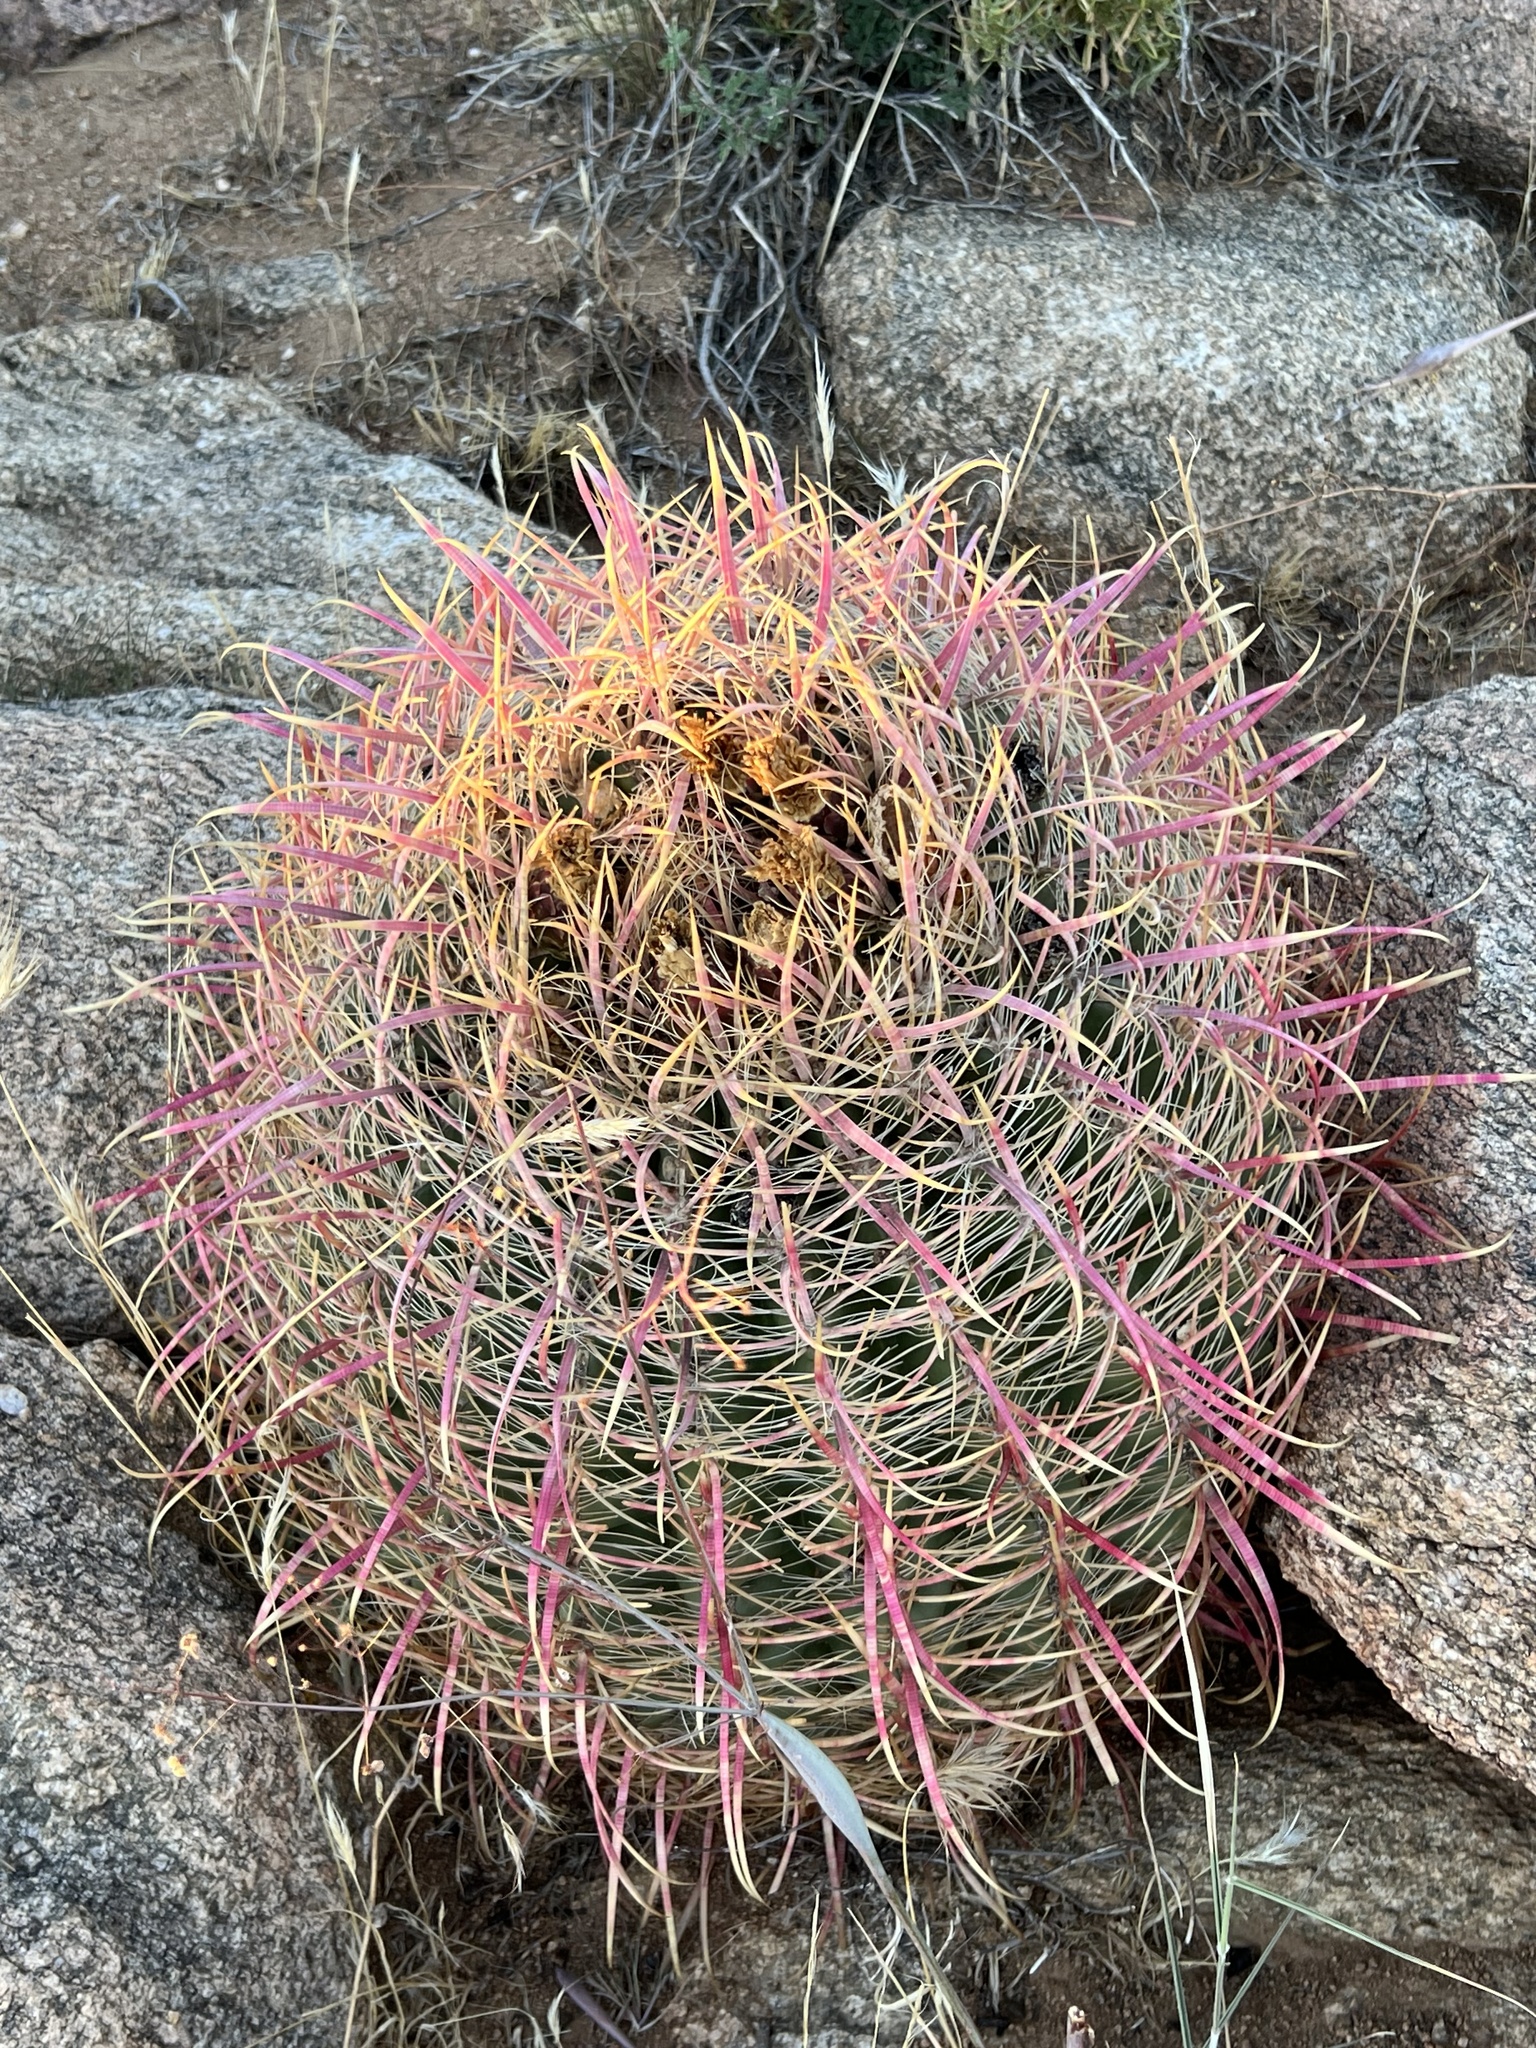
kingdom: Plantae
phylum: Tracheophyta
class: Magnoliopsida
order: Caryophyllales
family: Cactaceae
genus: Ferocactus
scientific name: Ferocactus cylindraceus
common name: California barrel cactus
